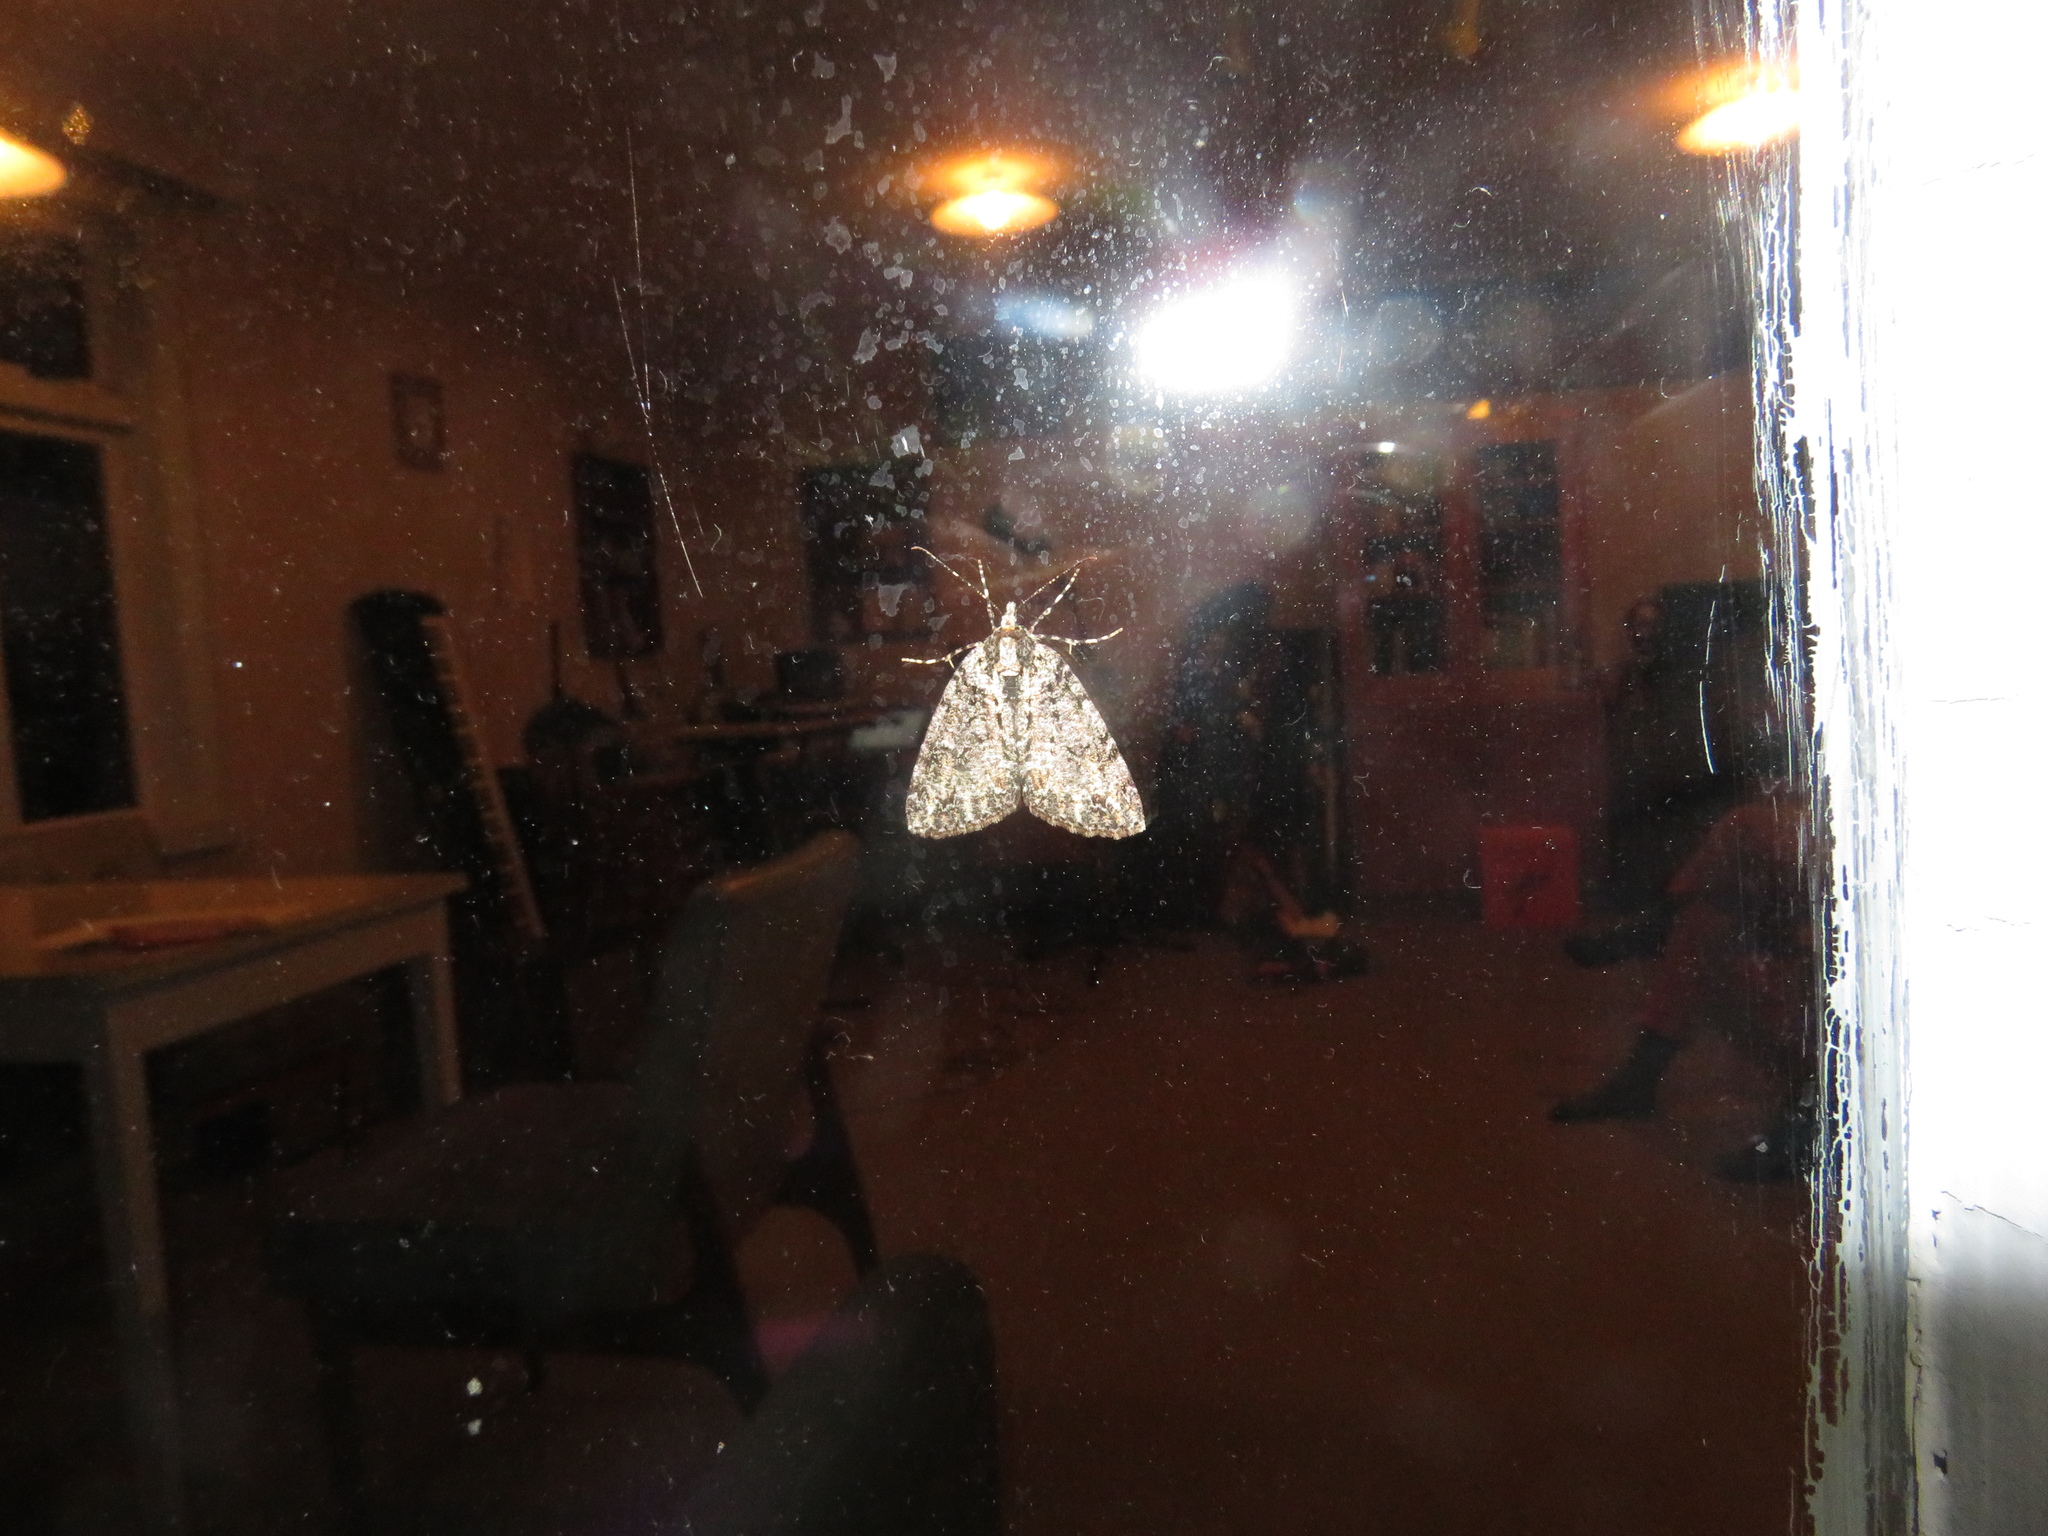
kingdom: Animalia
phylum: Arthropoda
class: Insecta
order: Lepidoptera
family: Geometridae
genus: Pseudocoremia
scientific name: Pseudocoremia suavis
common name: Common forest looper
